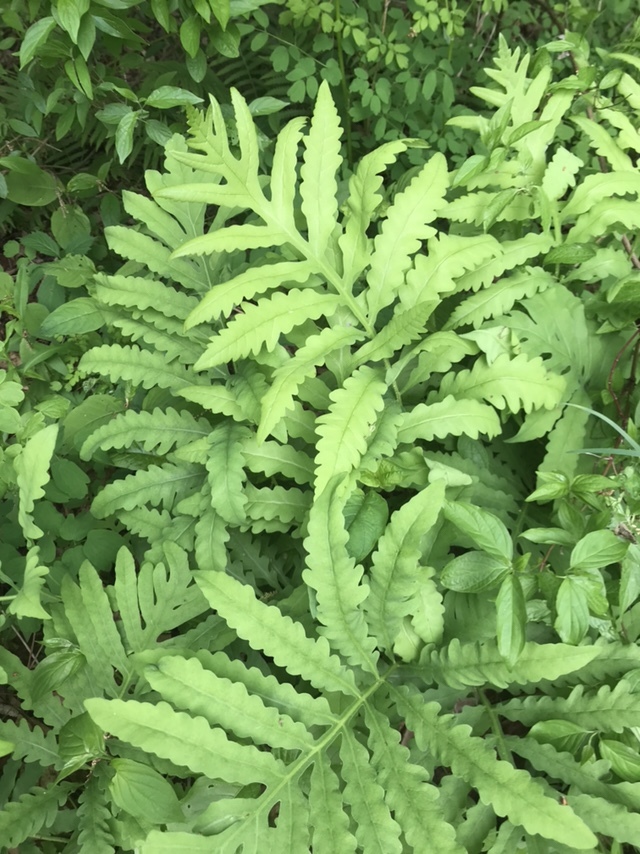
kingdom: Plantae
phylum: Tracheophyta
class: Polypodiopsida
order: Polypodiales
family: Onocleaceae
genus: Onoclea
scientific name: Onoclea sensibilis
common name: Sensitive fern
